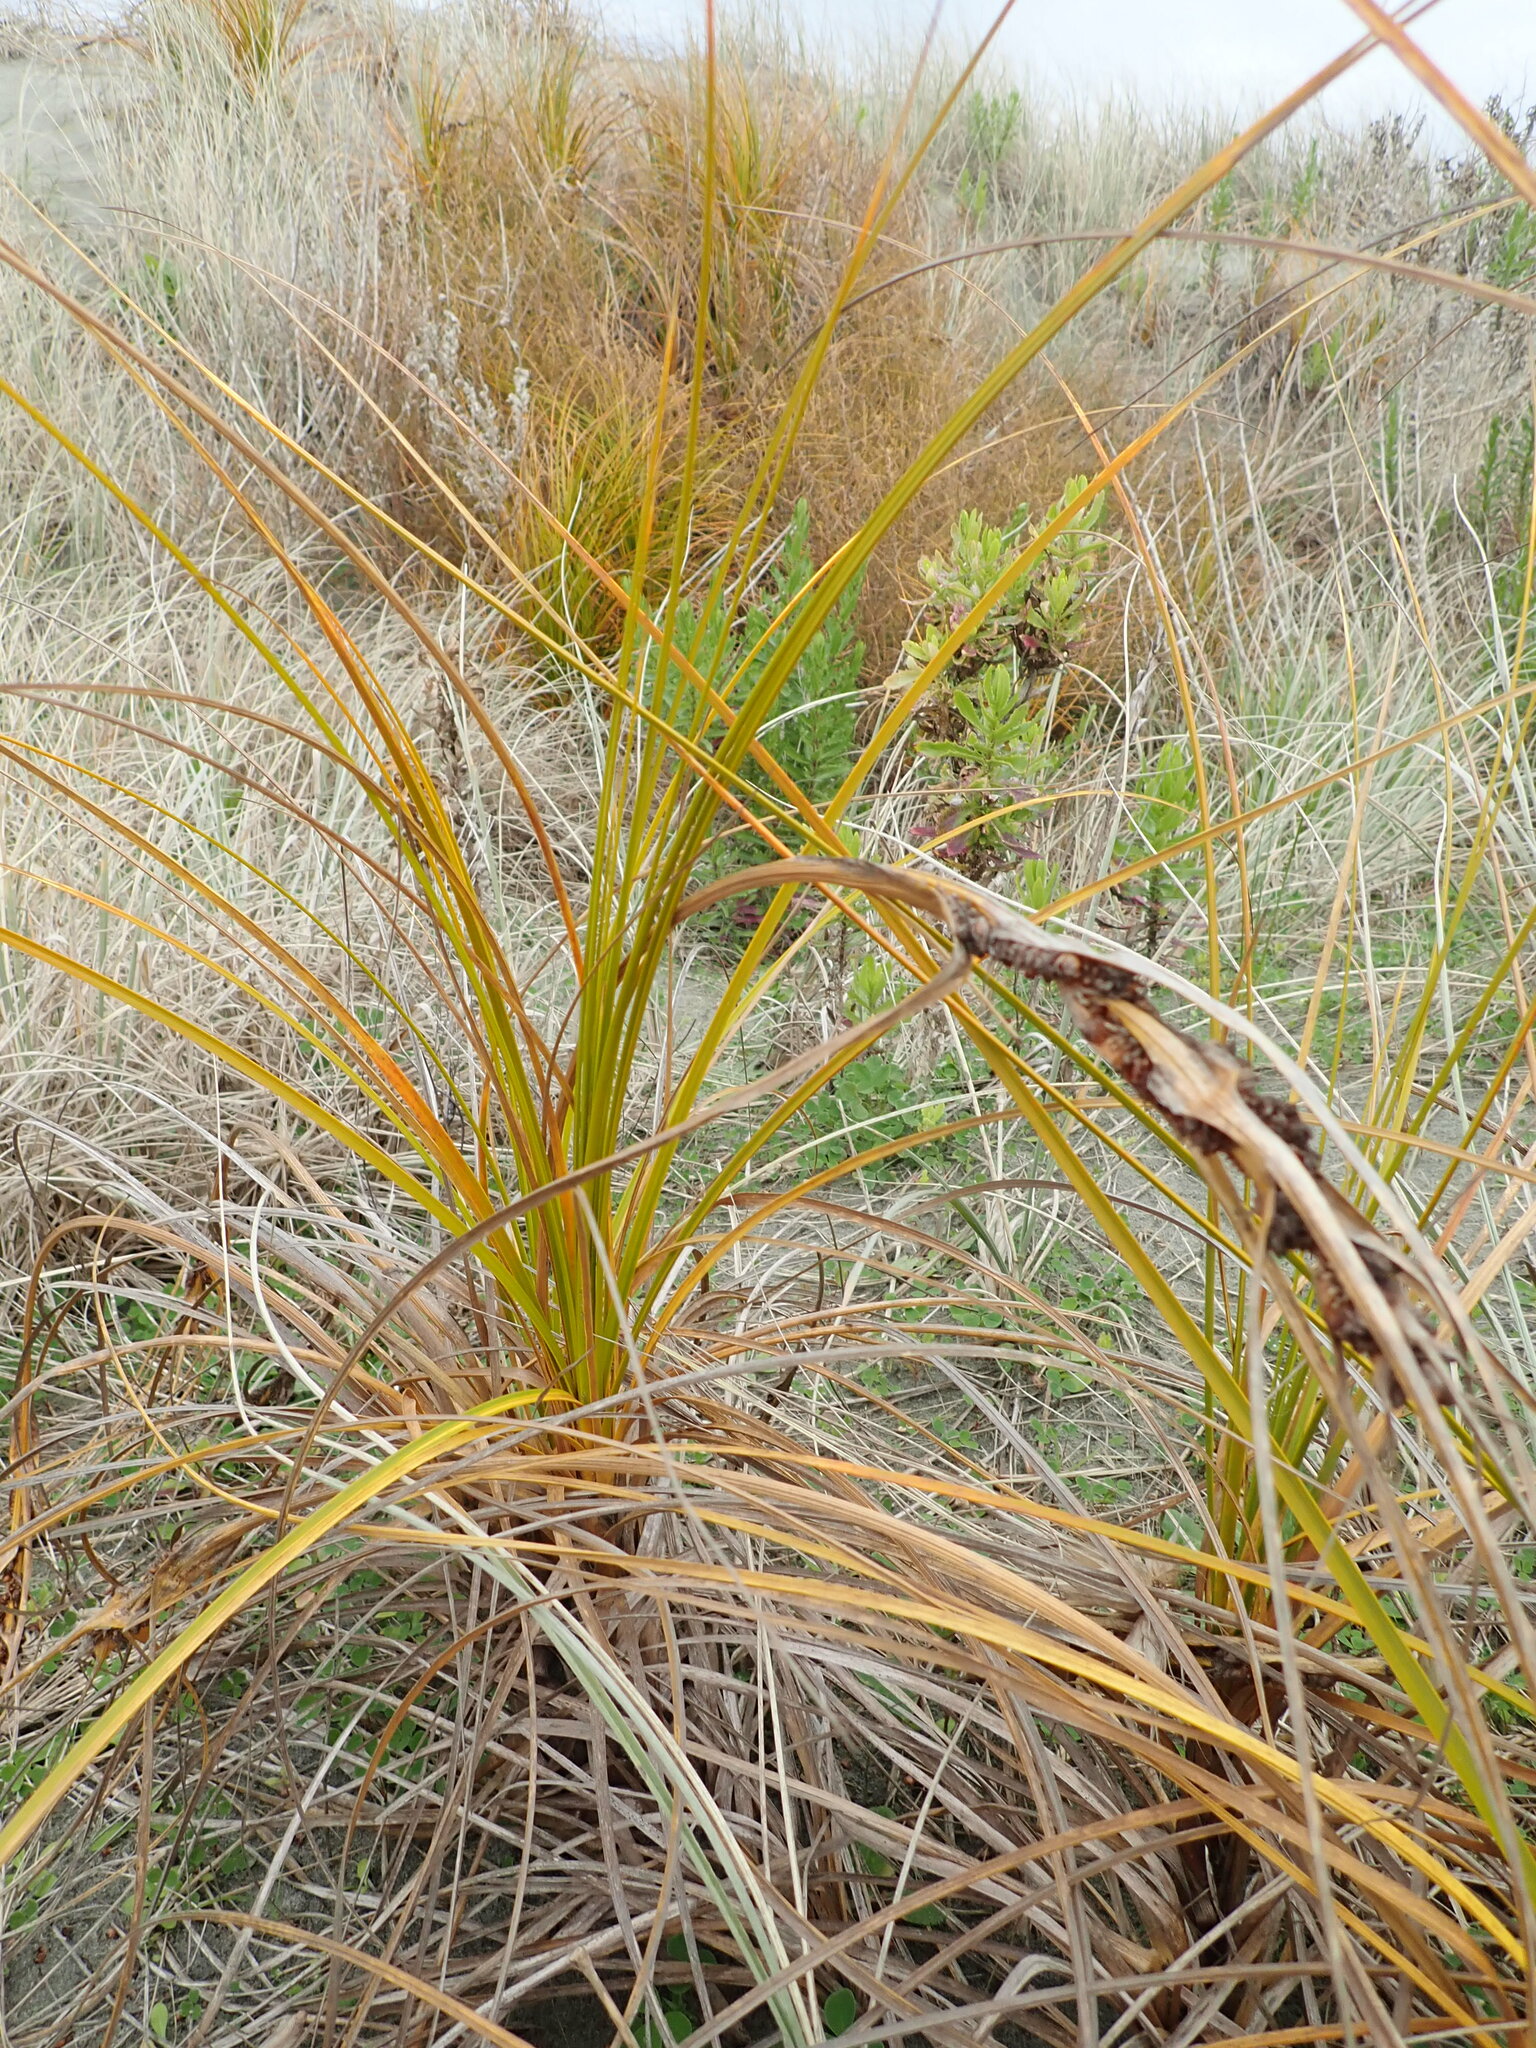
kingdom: Plantae
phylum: Tracheophyta
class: Liliopsida
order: Poales
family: Cyperaceae
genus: Ficinia
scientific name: Ficinia spiralis
